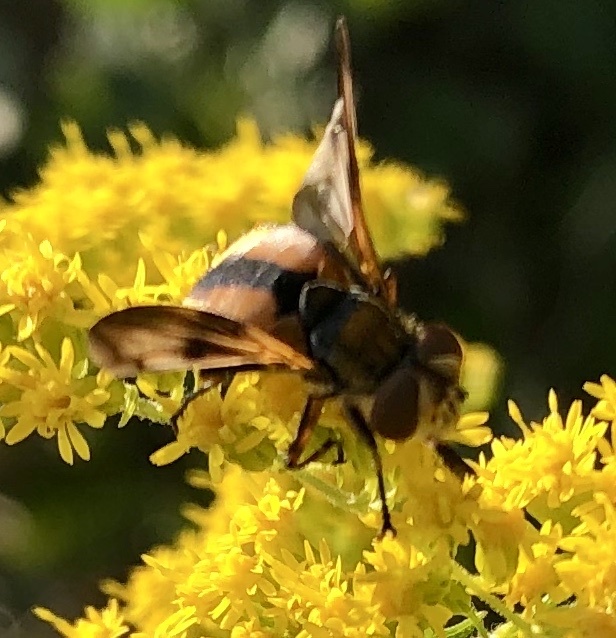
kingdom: Animalia
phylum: Arthropoda
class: Insecta
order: Diptera
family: Tachinidae
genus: Ectophasia
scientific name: Ectophasia crassipennis
